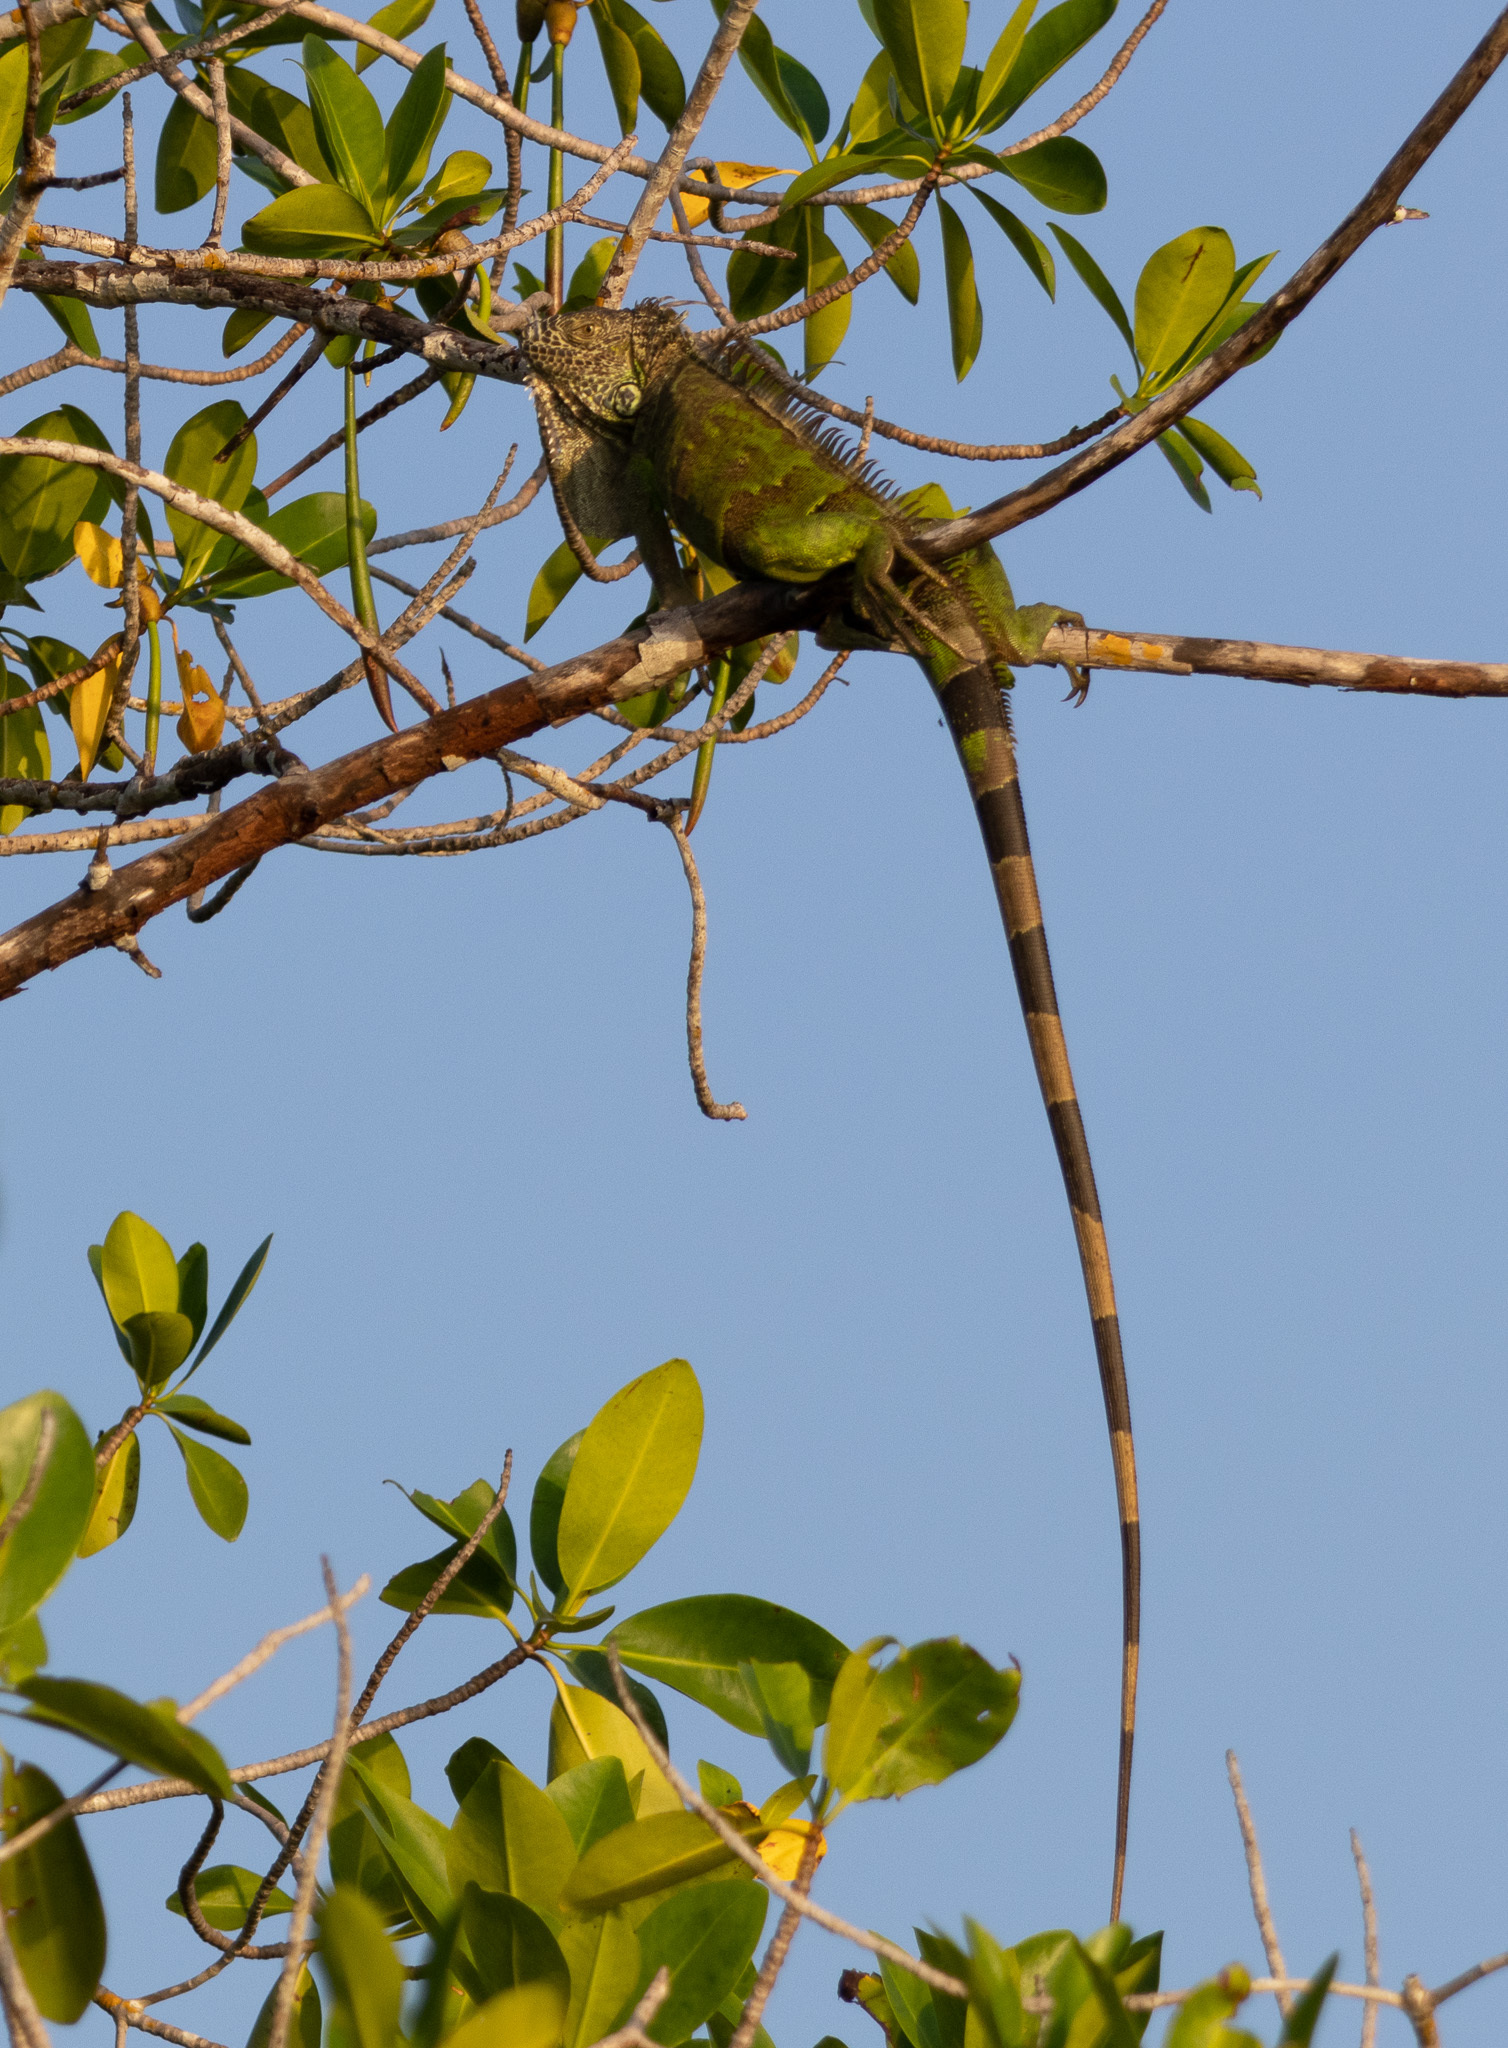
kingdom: Animalia
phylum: Chordata
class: Squamata
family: Iguanidae
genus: Iguana
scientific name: Iguana iguana
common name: Green iguana
